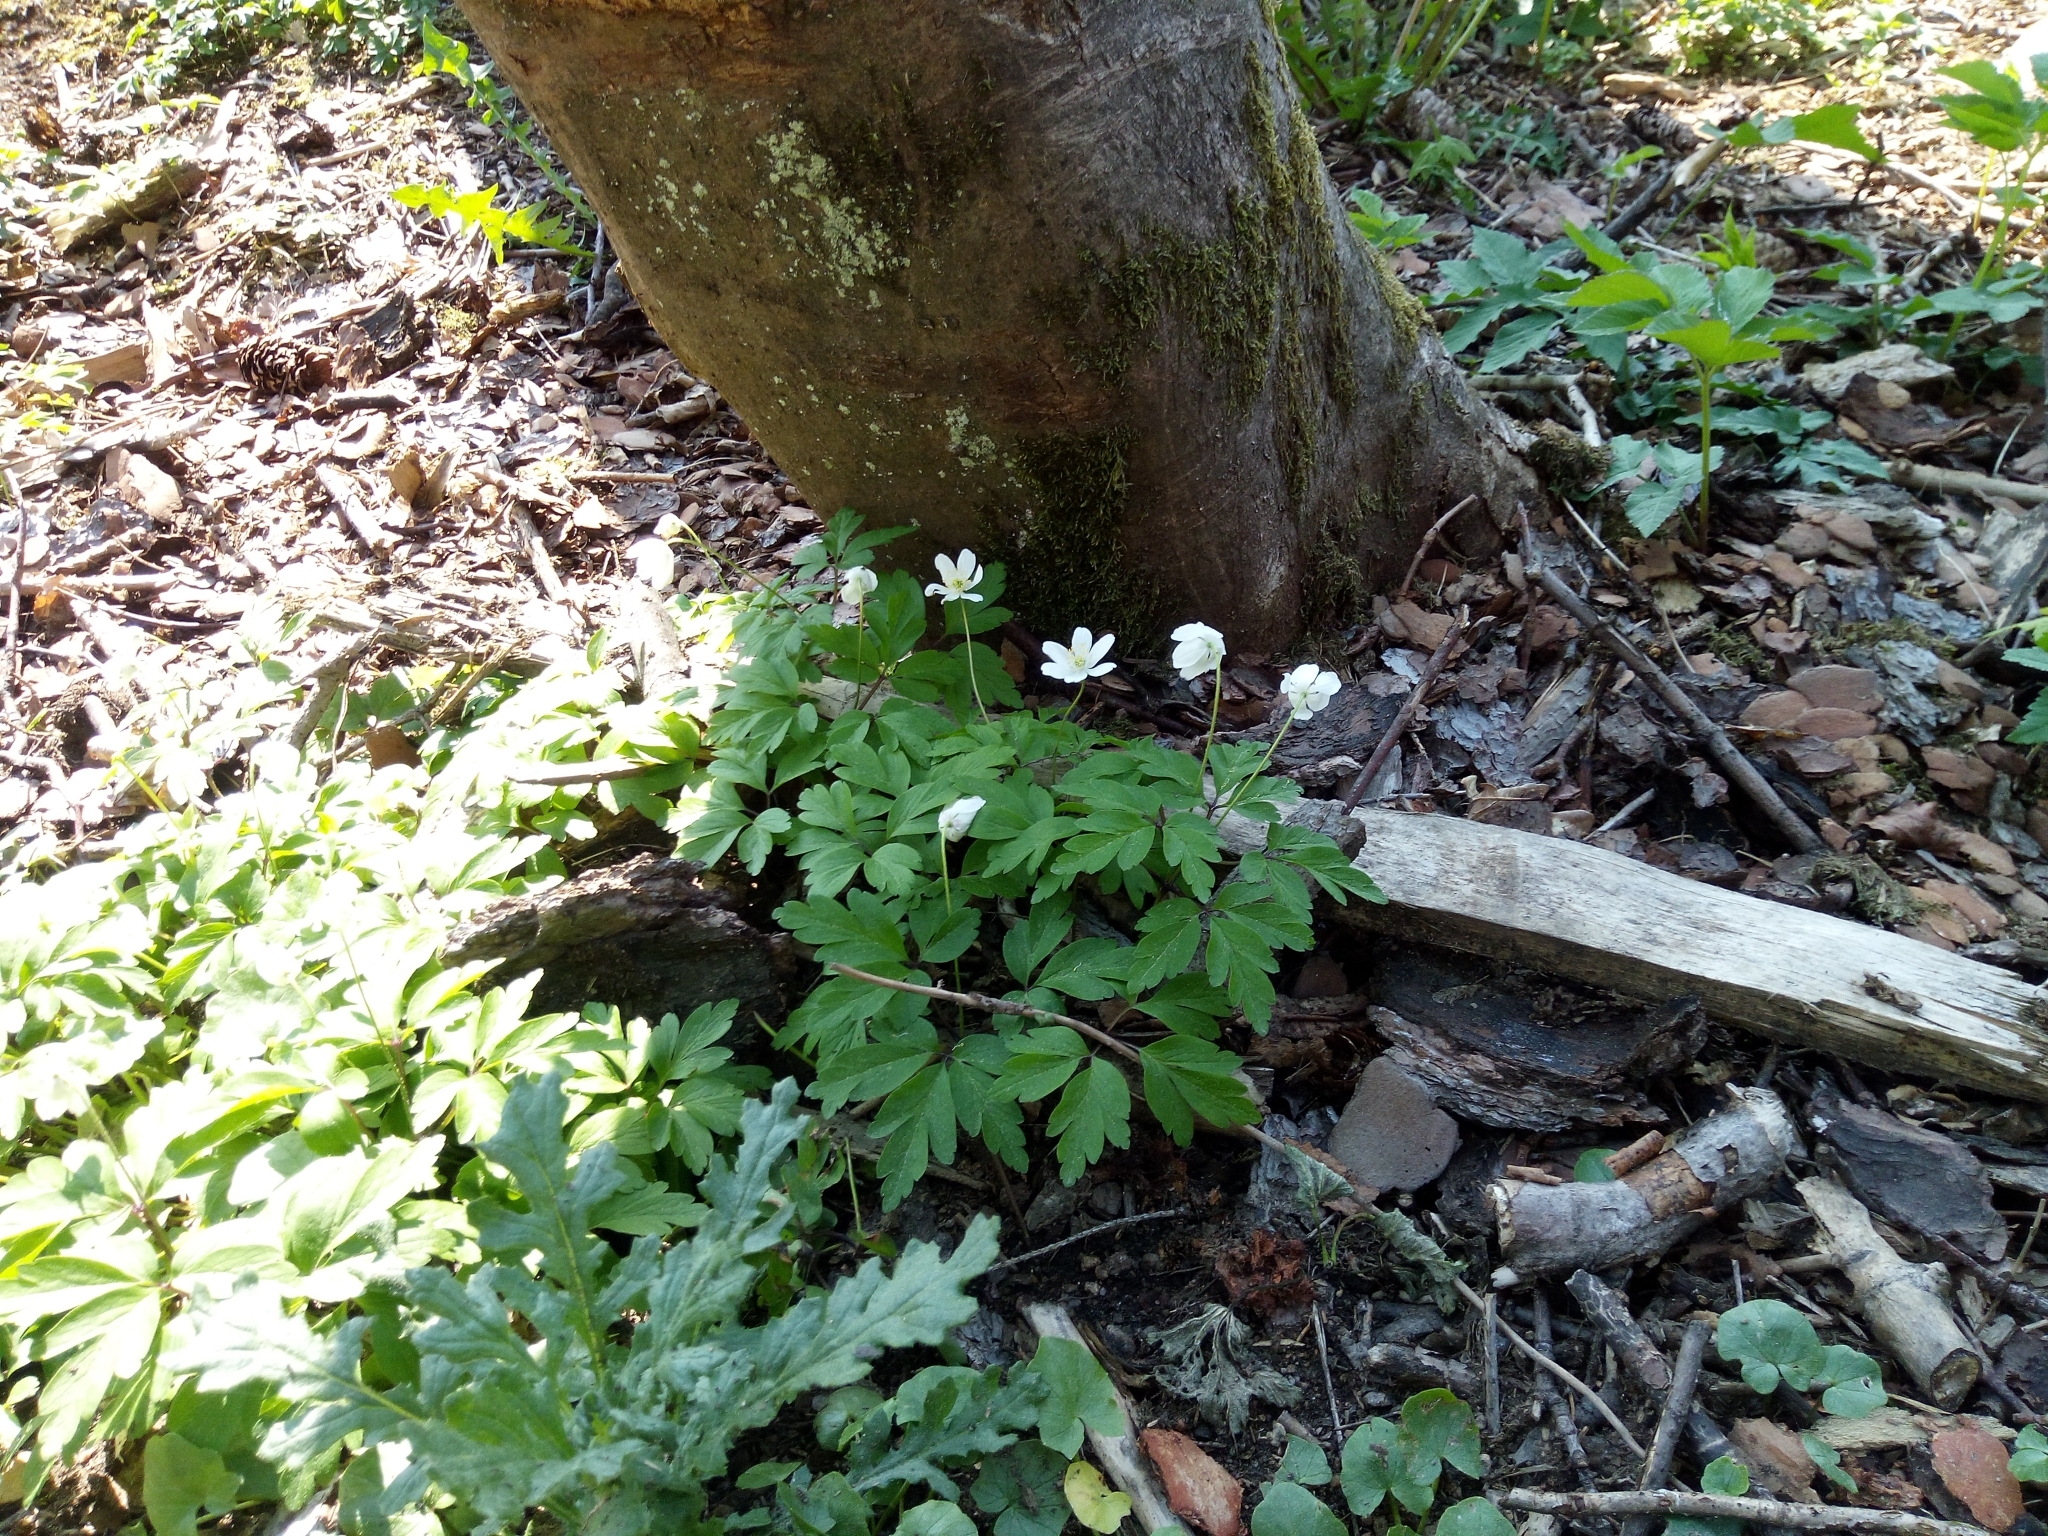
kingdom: Plantae
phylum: Tracheophyta
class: Magnoliopsida
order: Ranunculales
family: Ranunculaceae
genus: Anemone
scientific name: Anemone nemorosa
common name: Wood anemone
